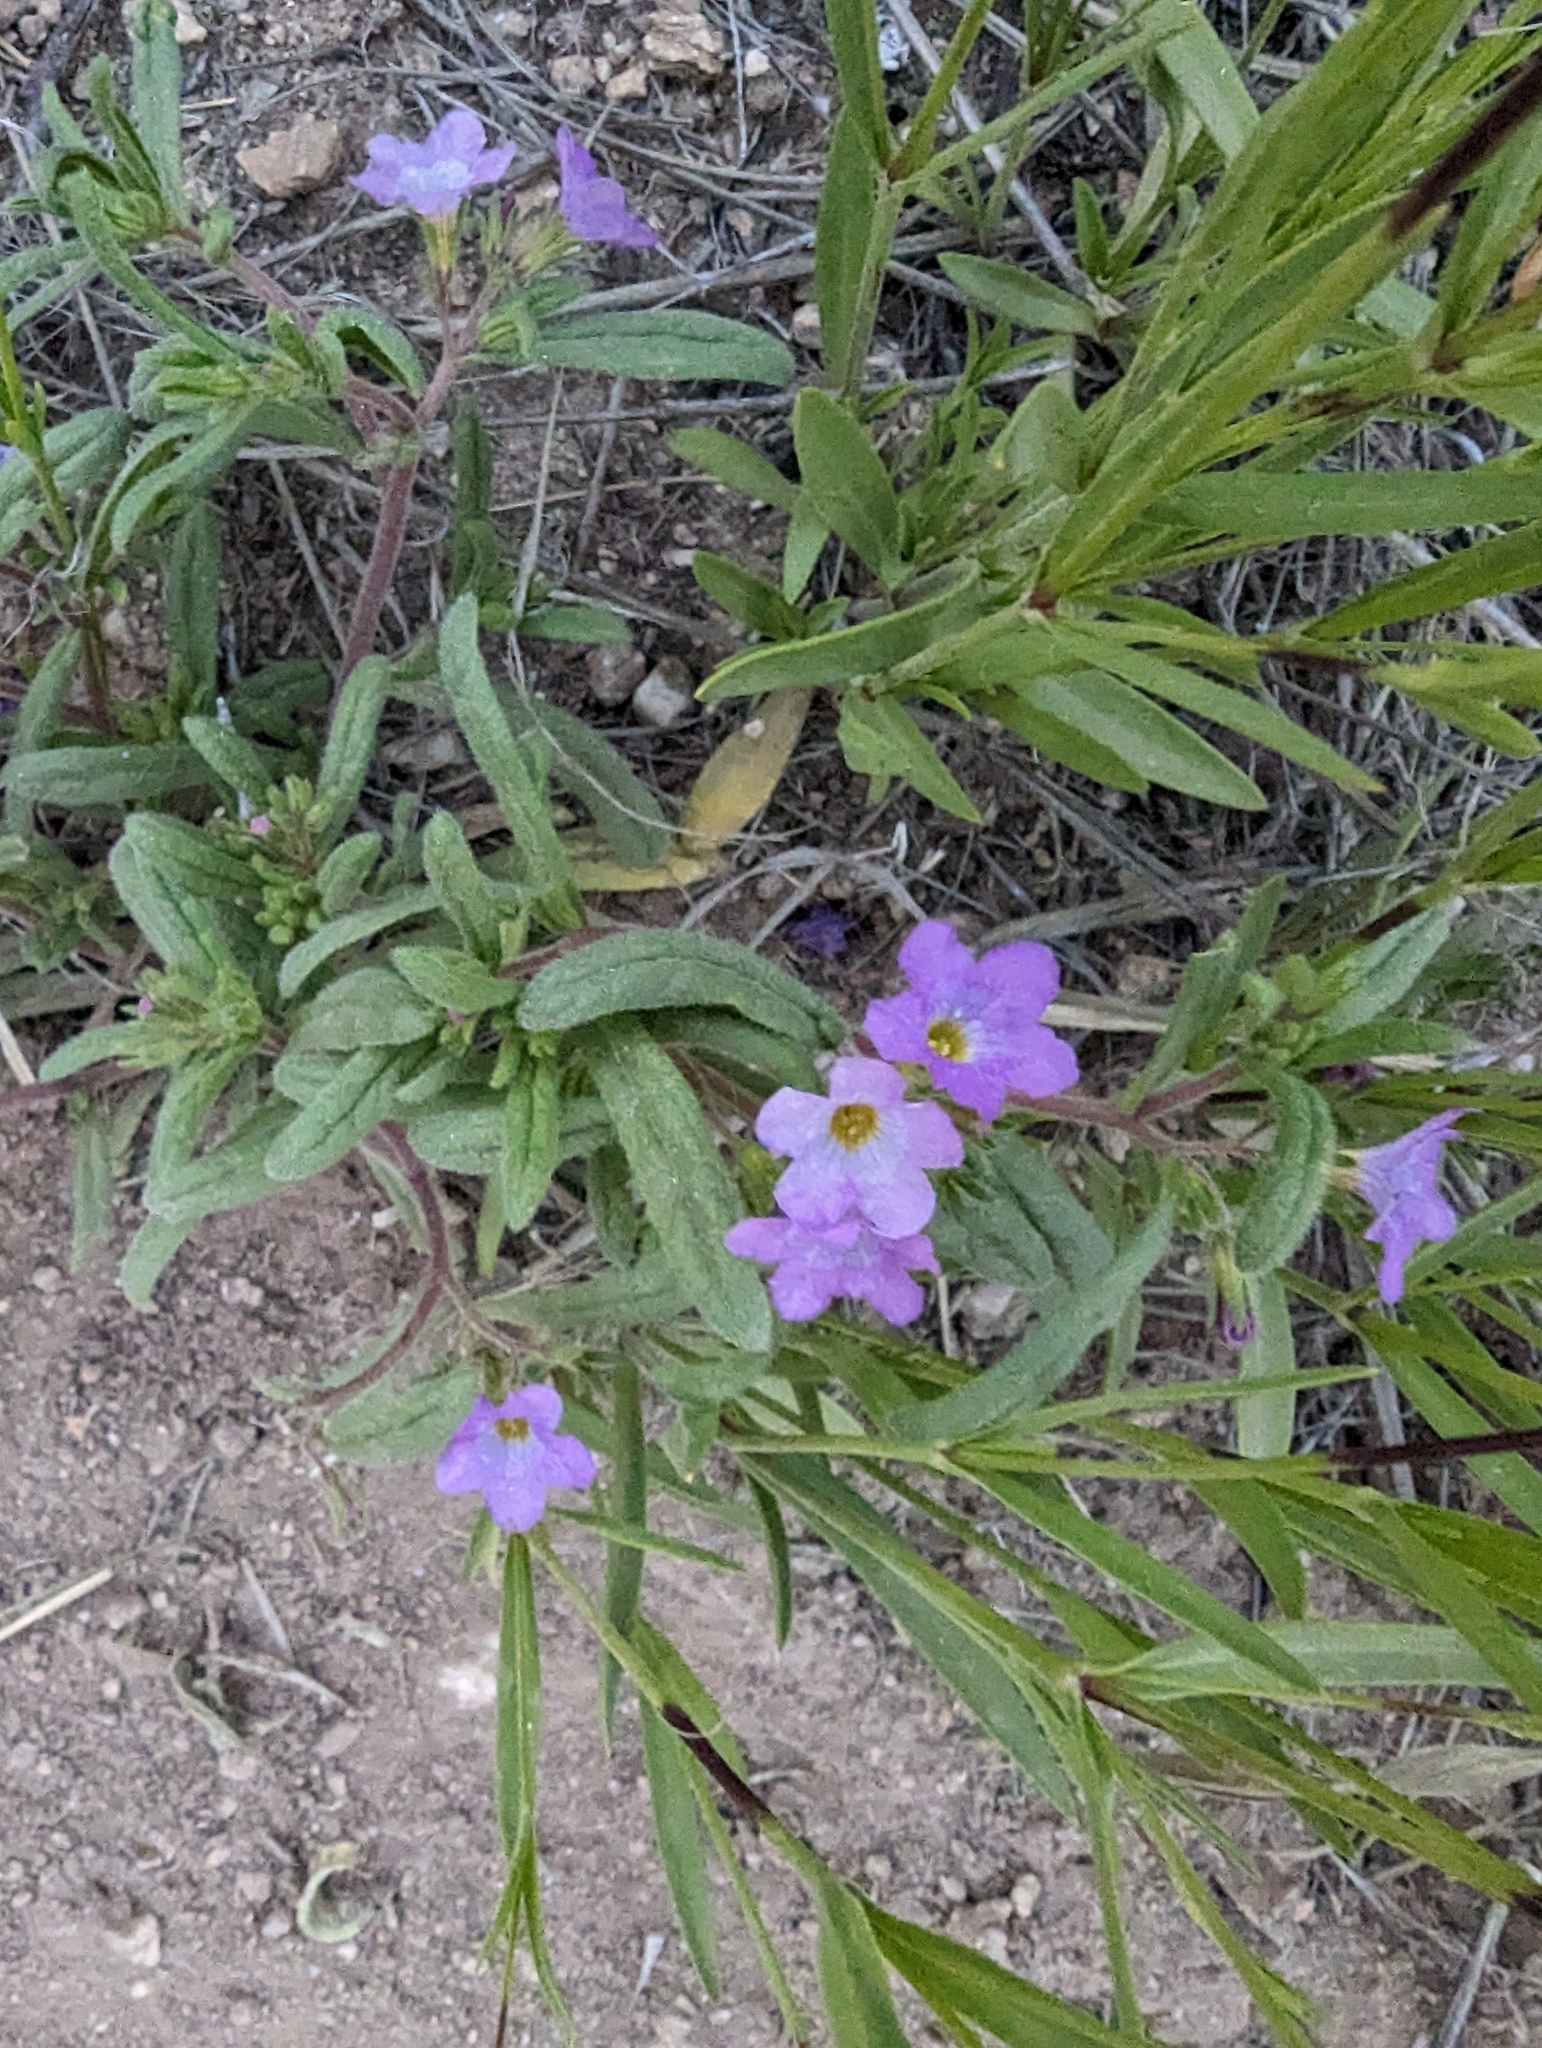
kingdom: Plantae
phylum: Tracheophyta
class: Magnoliopsida
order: Boraginales
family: Namaceae
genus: Nama
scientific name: Nama hispida
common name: Bristly nama
